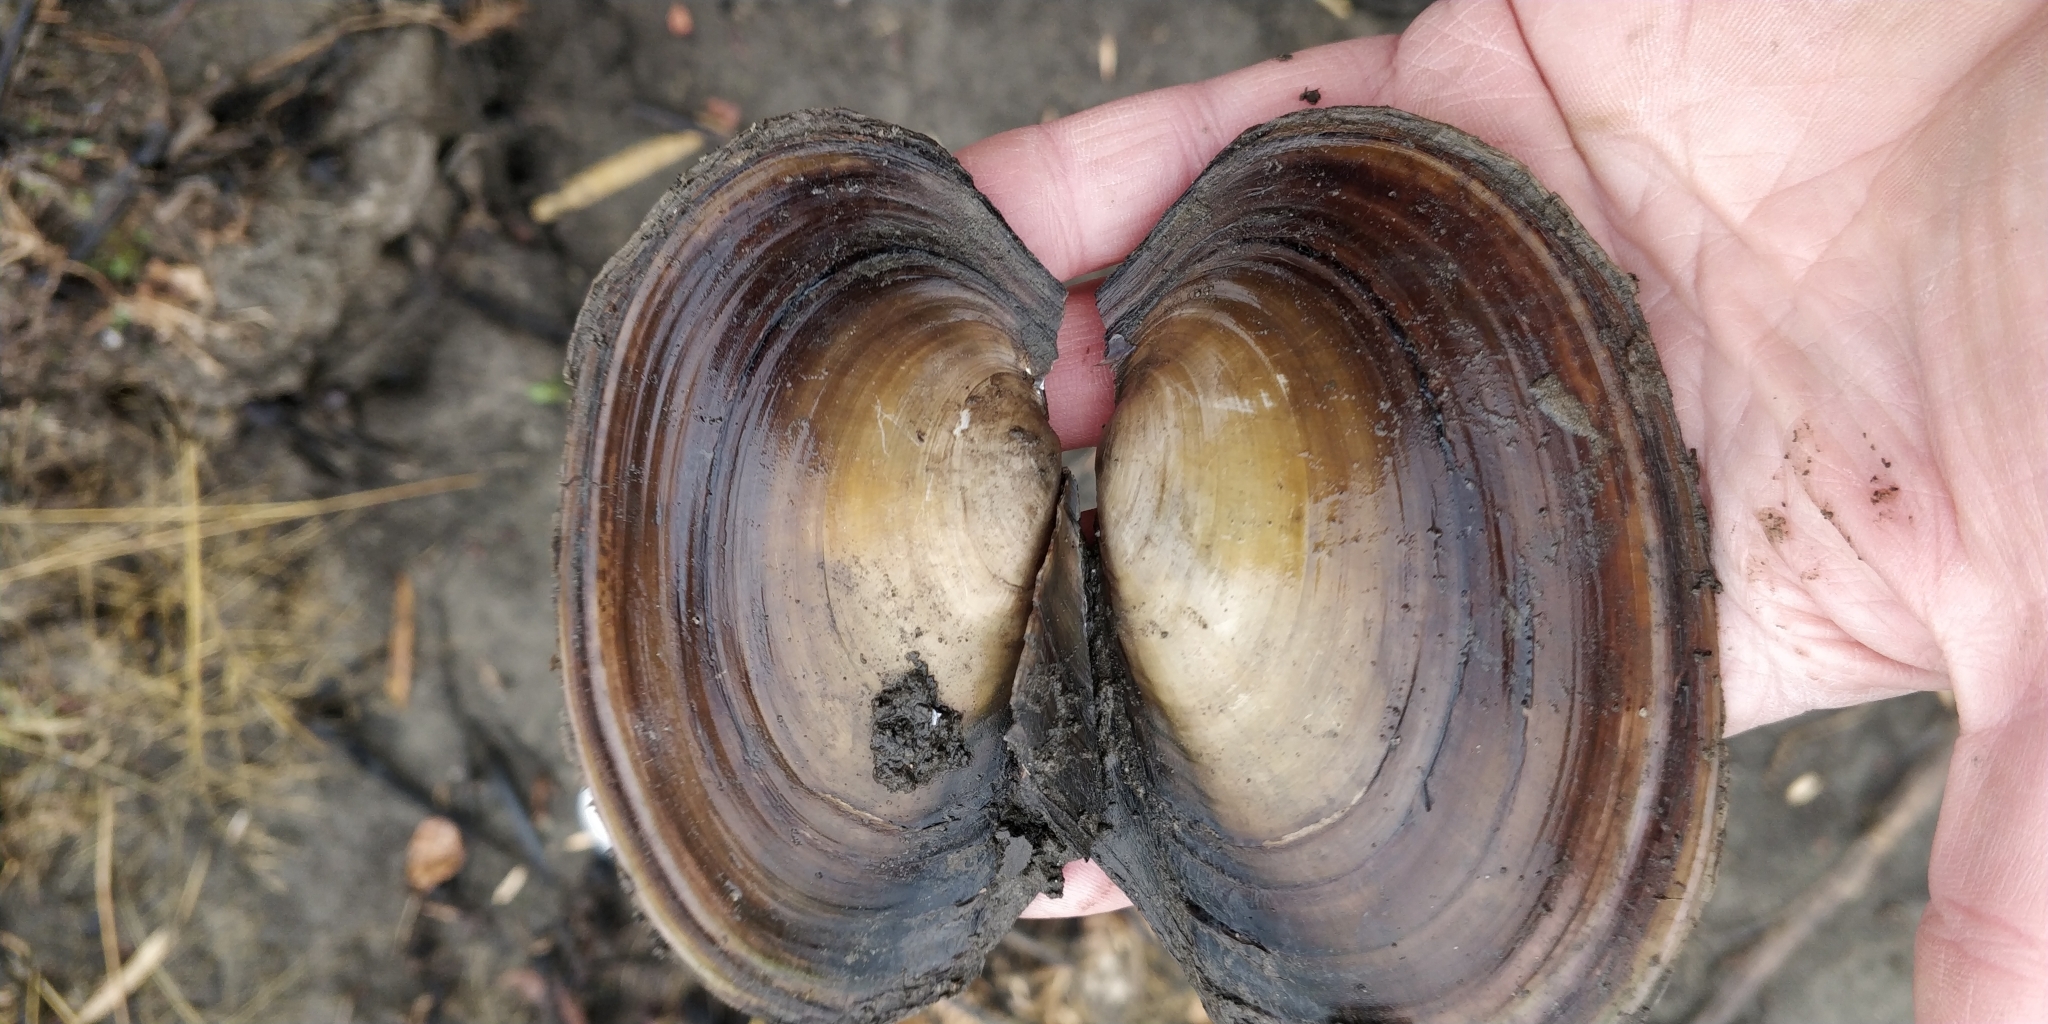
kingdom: Animalia
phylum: Mollusca
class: Bivalvia
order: Unionida
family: Unionidae
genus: Potamilus
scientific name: Potamilus ohiensis
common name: Pink papershell
